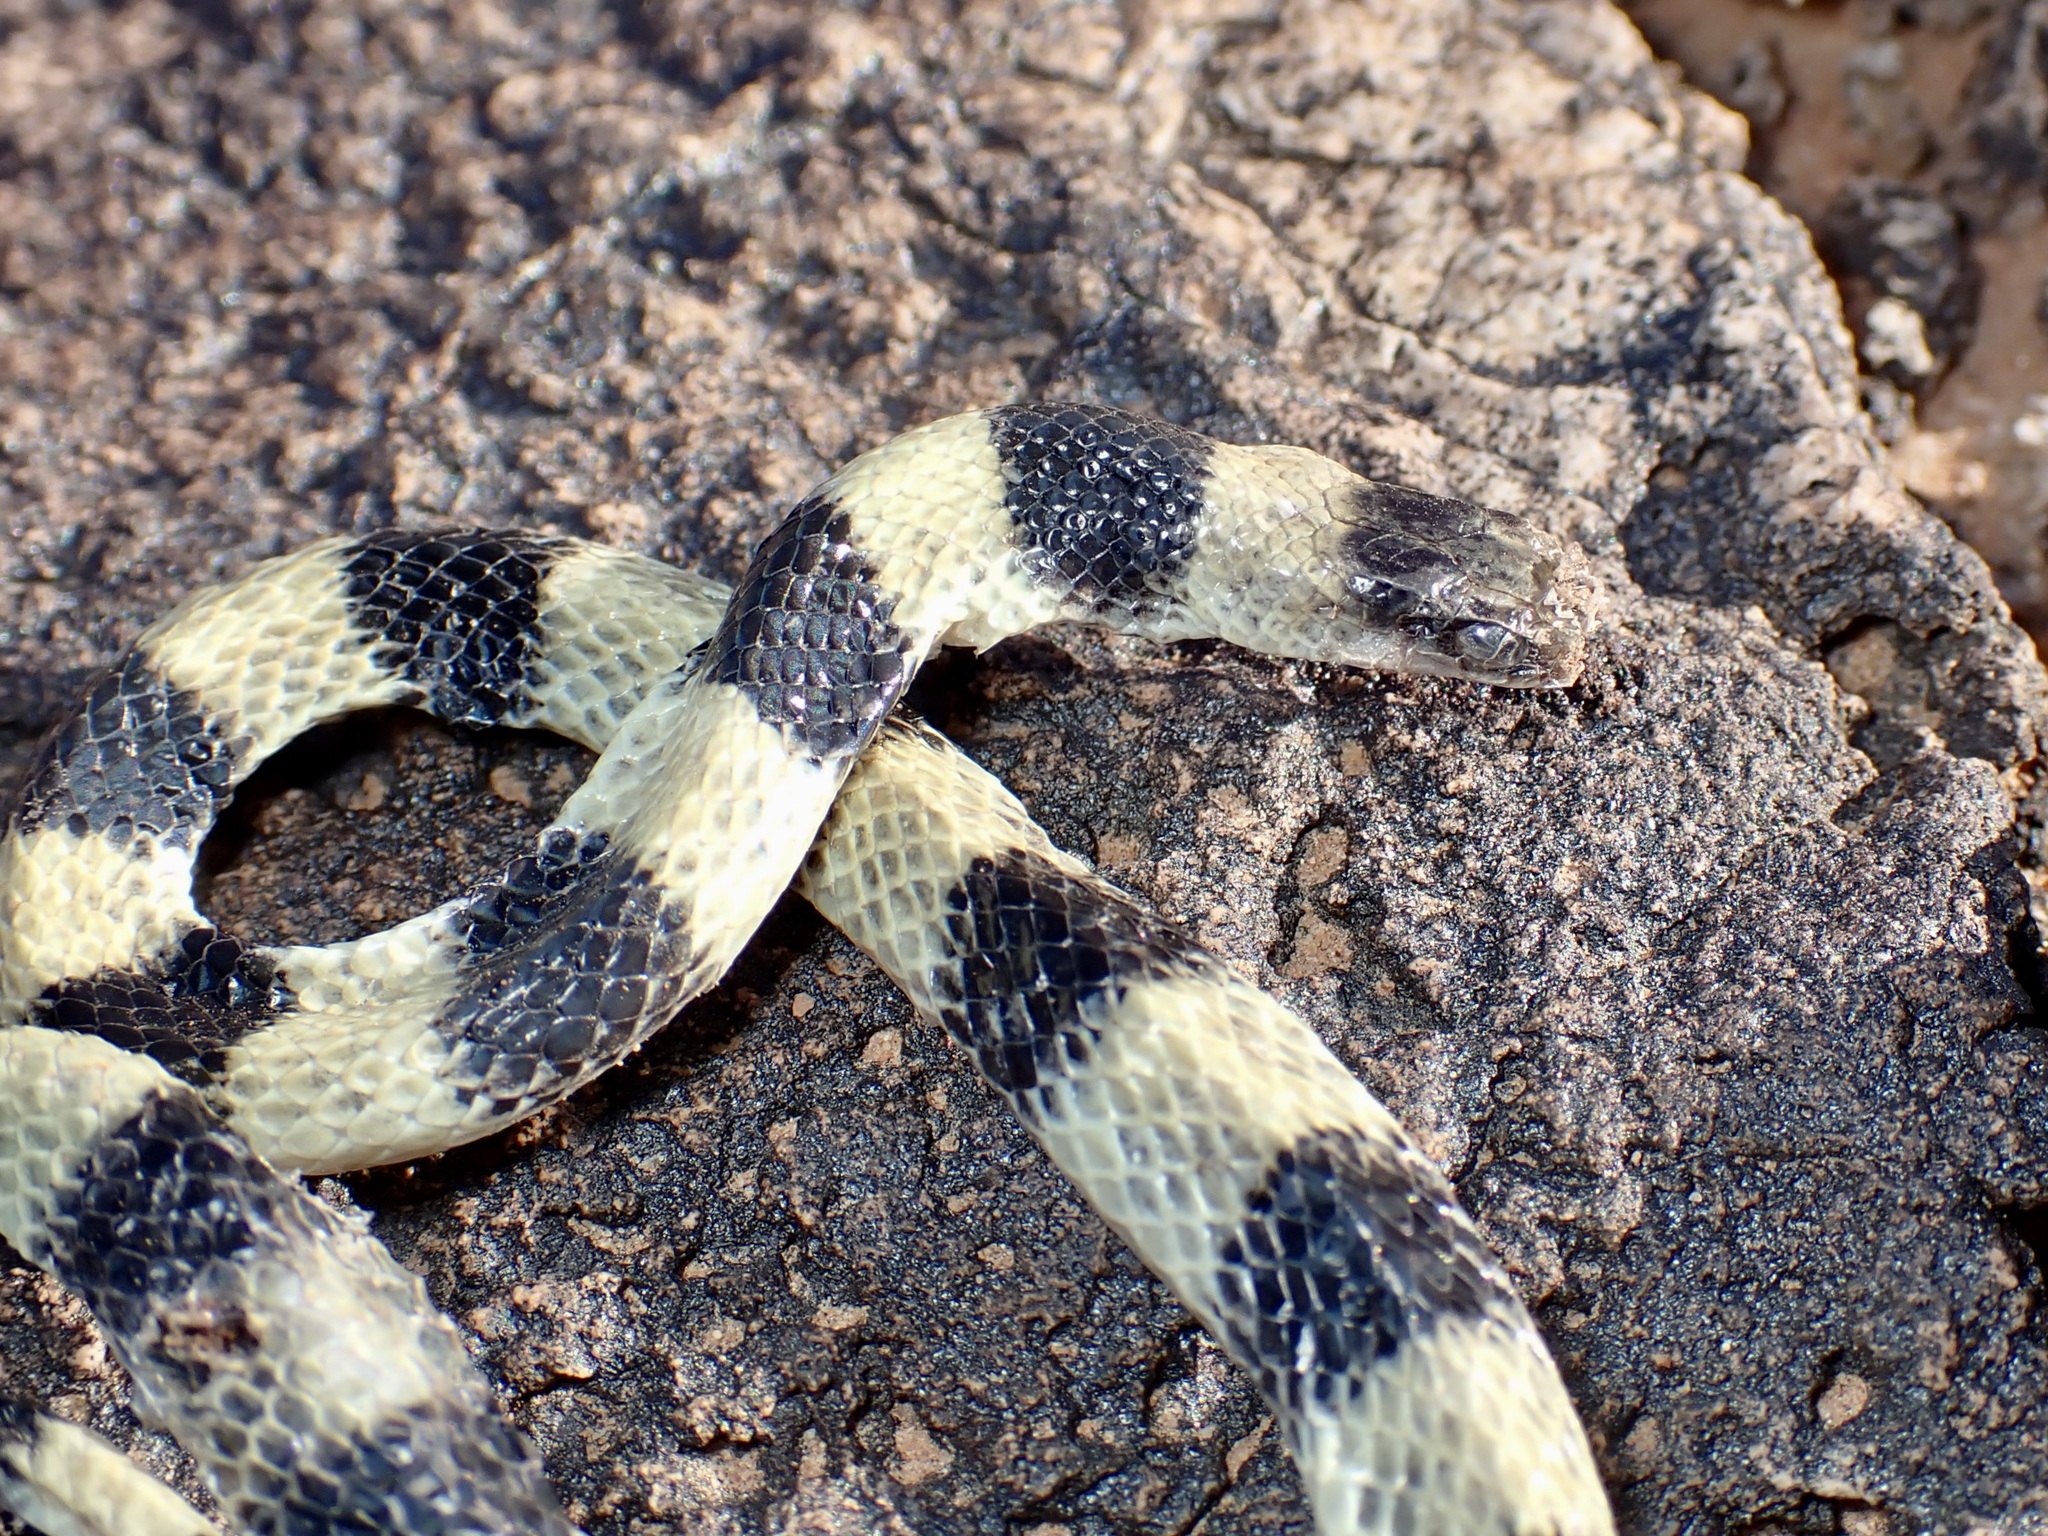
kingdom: Animalia
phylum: Chordata
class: Squamata
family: Colubridae
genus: Sonora
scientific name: Sonora semiannulata
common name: Ground snake
